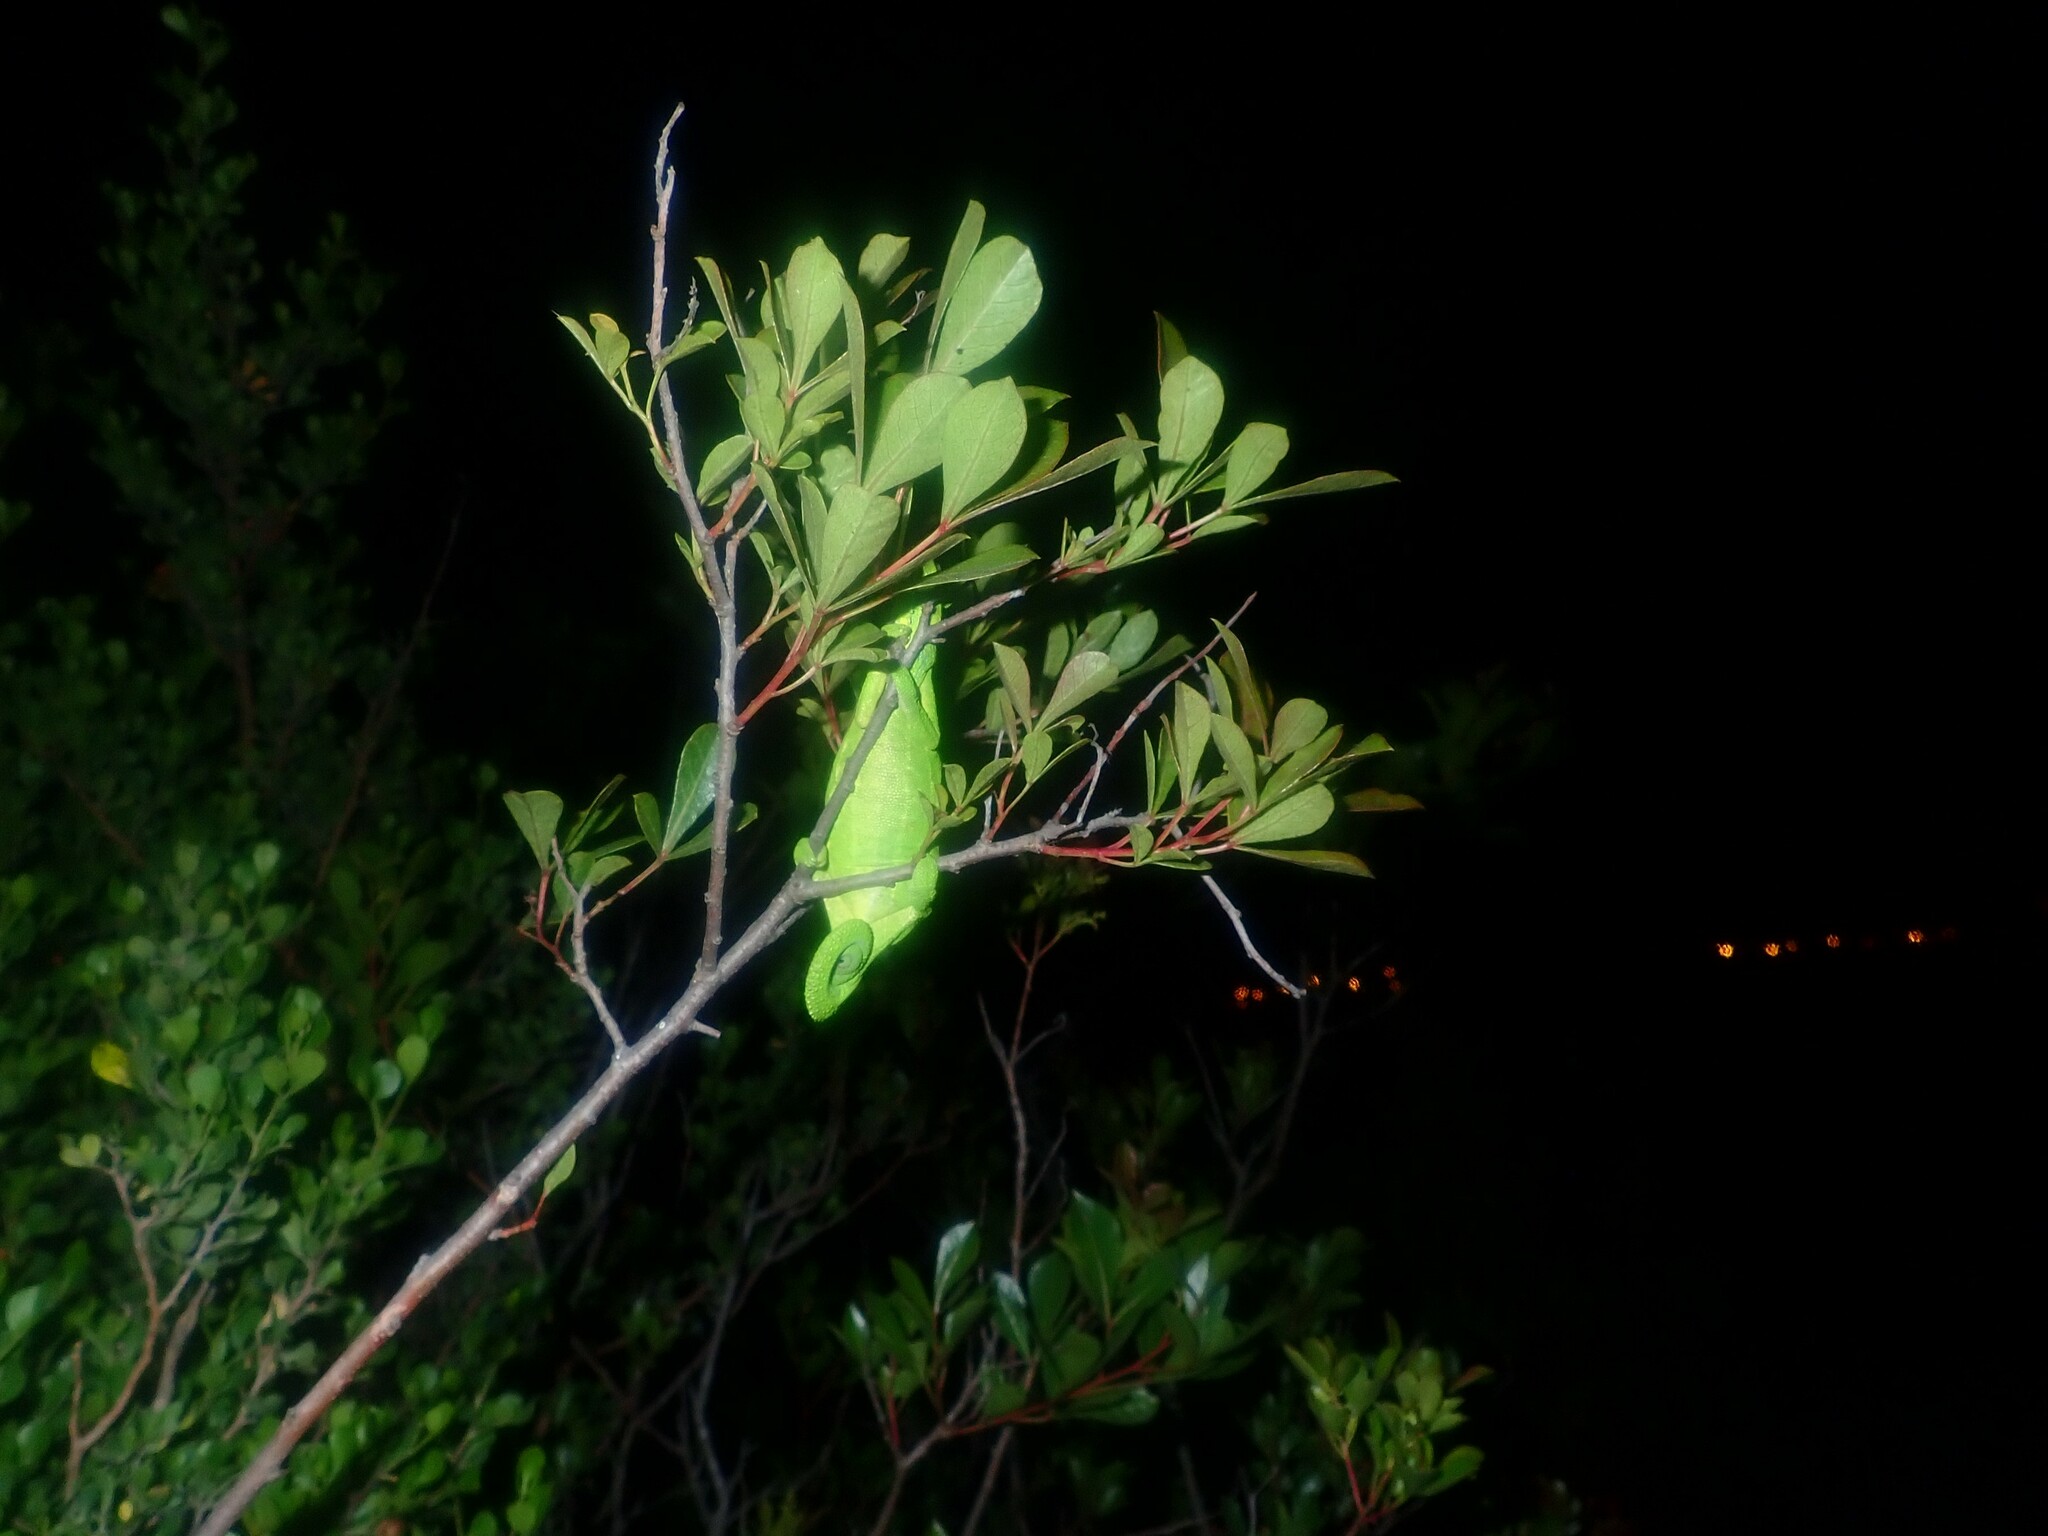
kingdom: Animalia
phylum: Chordata
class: Squamata
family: Chamaeleonidae
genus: Bradypodion
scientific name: Bradypodion pumilum
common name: Cape dwarf chameleon
